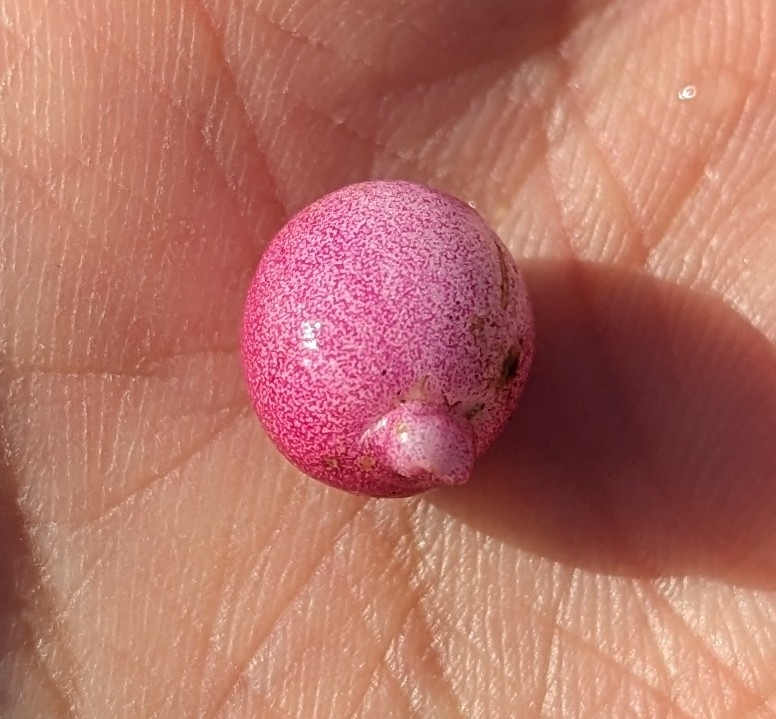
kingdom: Plantae
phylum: Tracheophyta
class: Magnoliopsida
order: Dipsacales
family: Caprifoliaceae
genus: Symphoricarpos
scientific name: Symphoricarpos chenaultii
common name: Hybrid coralberry
